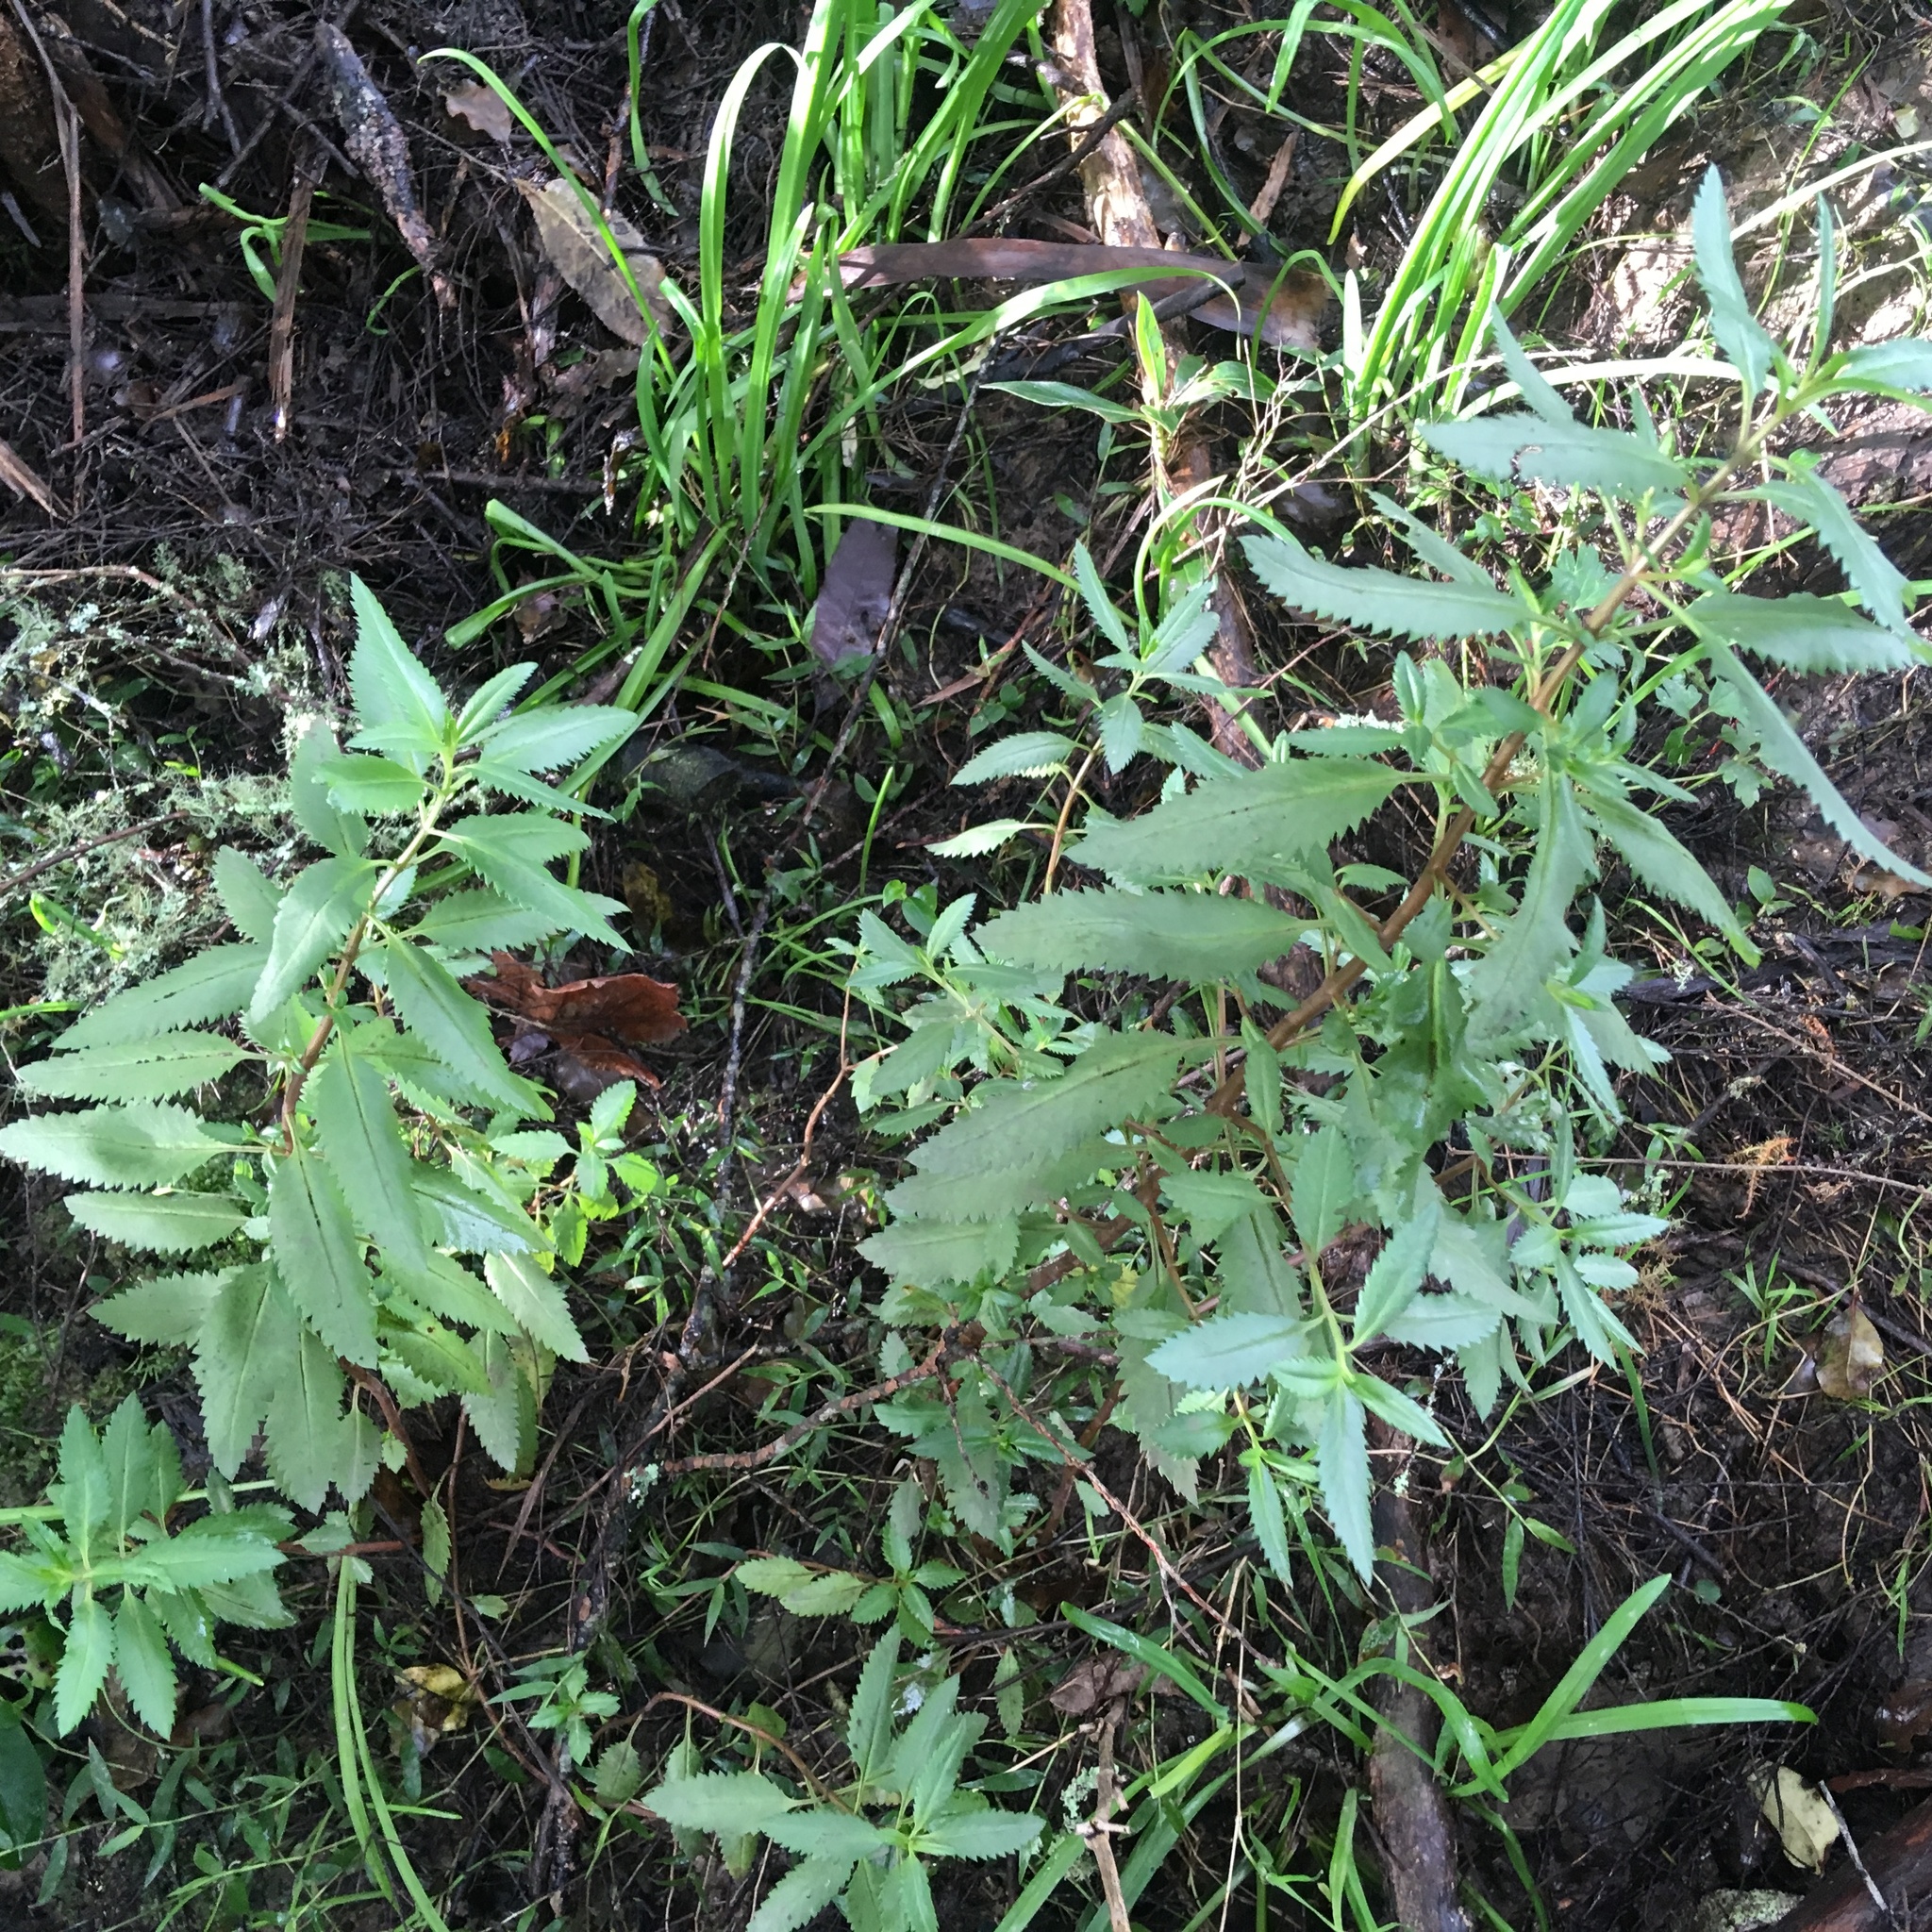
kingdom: Plantae
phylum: Tracheophyta
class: Liliopsida
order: Commelinales
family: Commelinaceae
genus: Tradescantia
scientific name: Tradescantia fluminensis
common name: Wandering-jew
